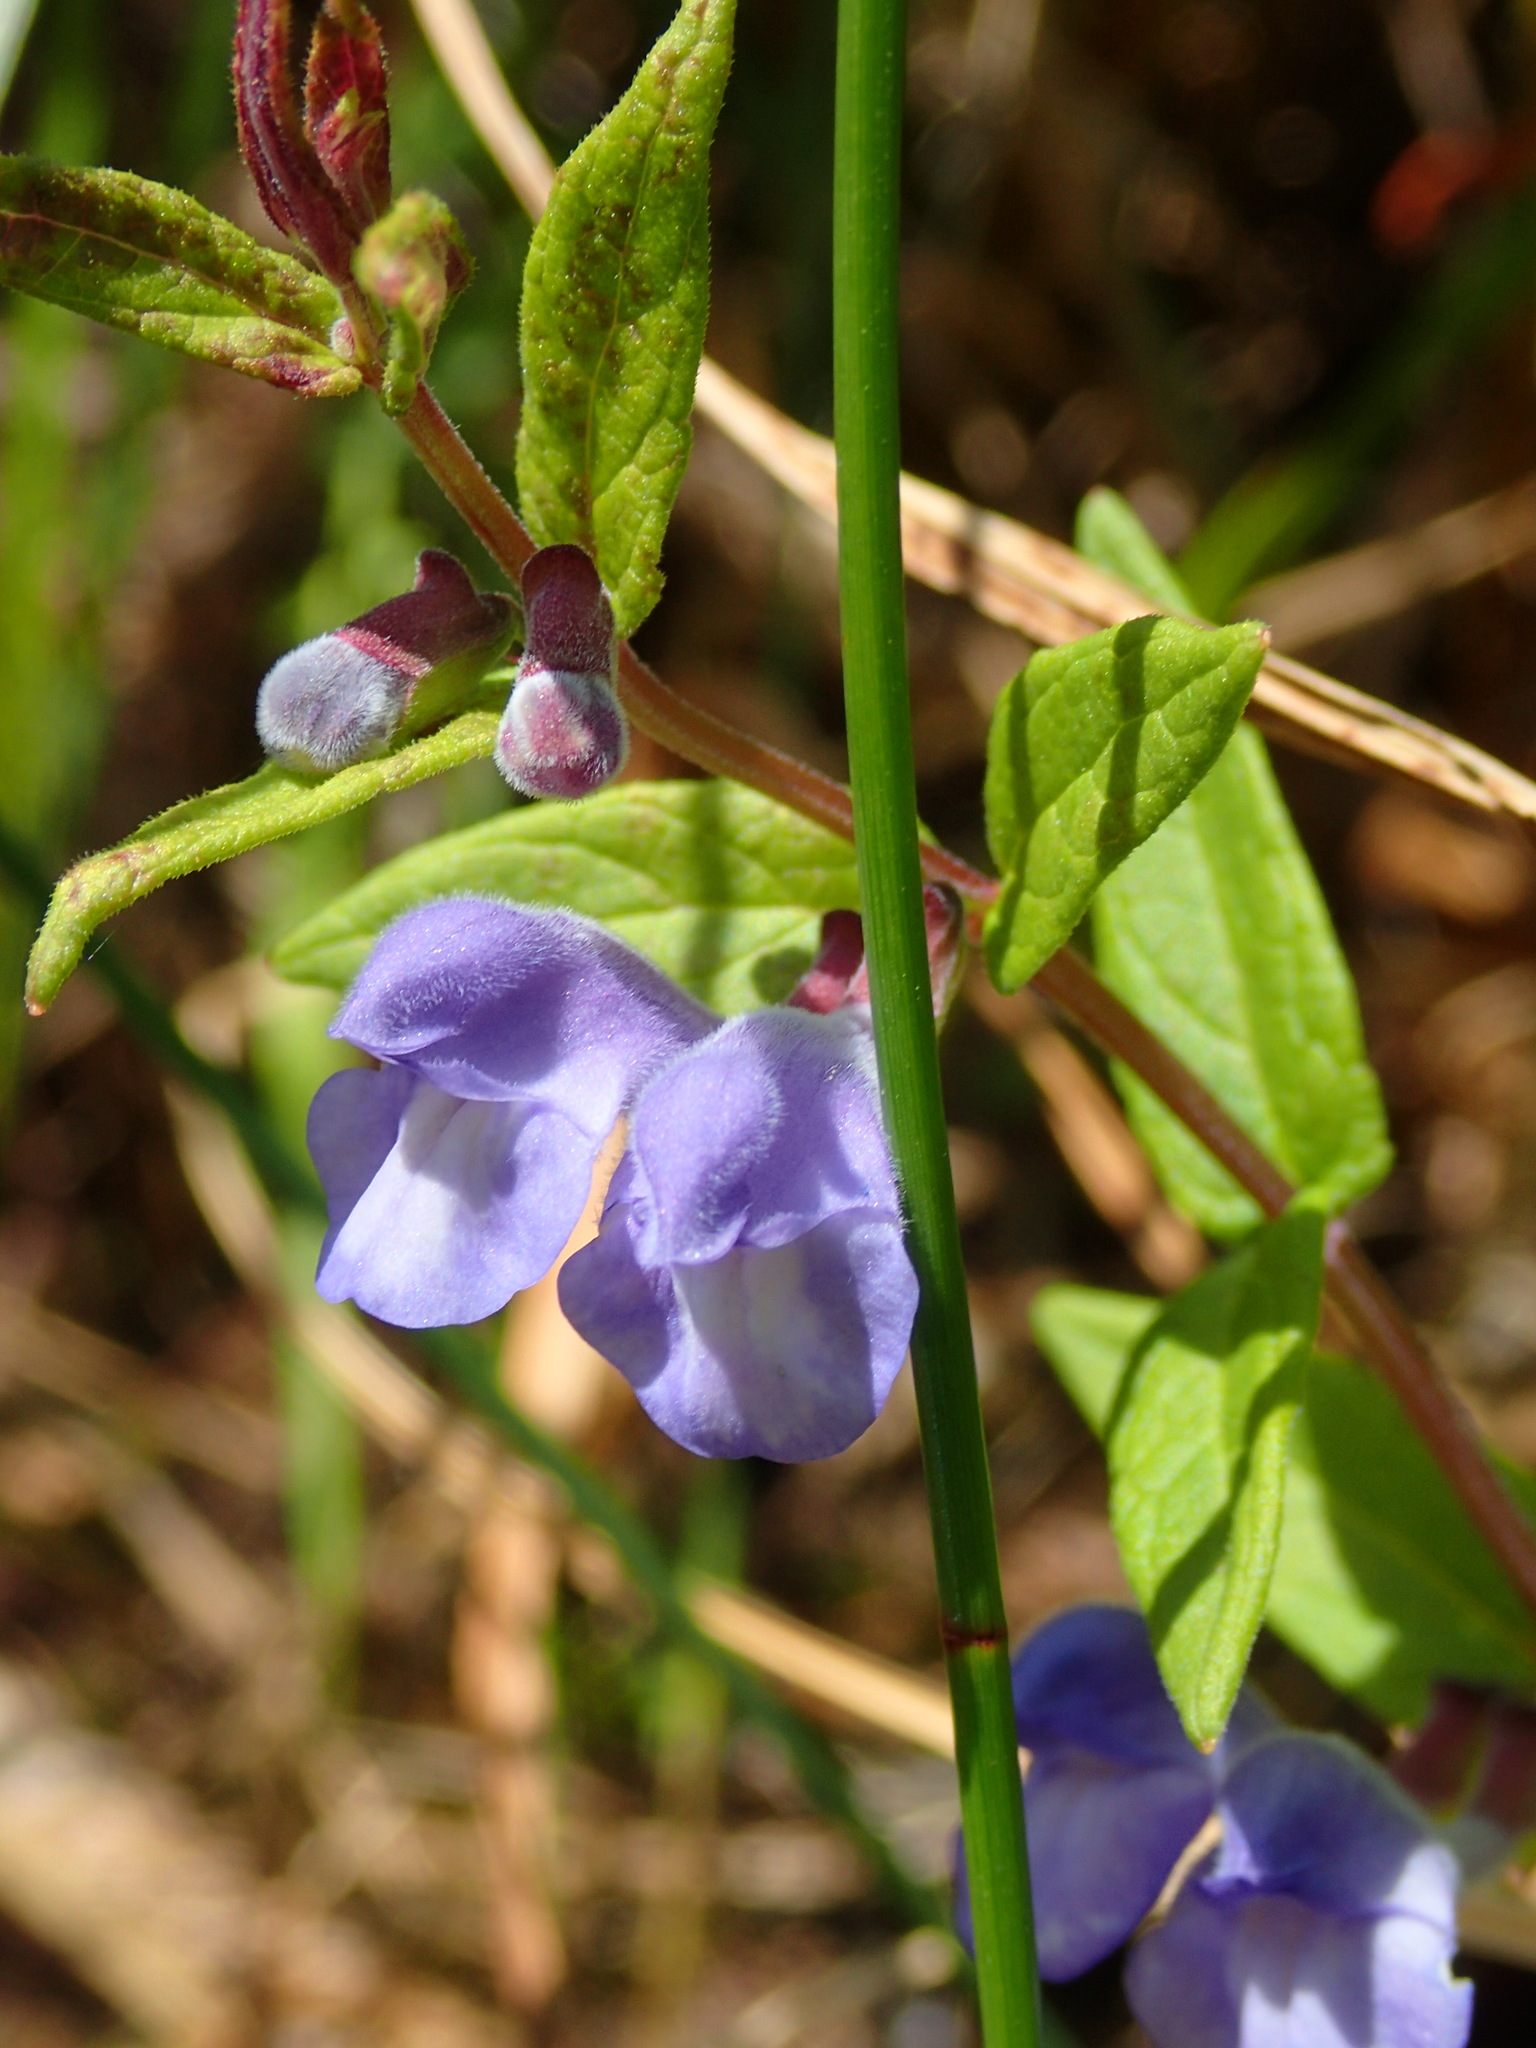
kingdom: Plantae
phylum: Tracheophyta
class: Magnoliopsida
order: Lamiales
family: Lamiaceae
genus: Scutellaria
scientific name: Scutellaria galericulata
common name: Skullcap
